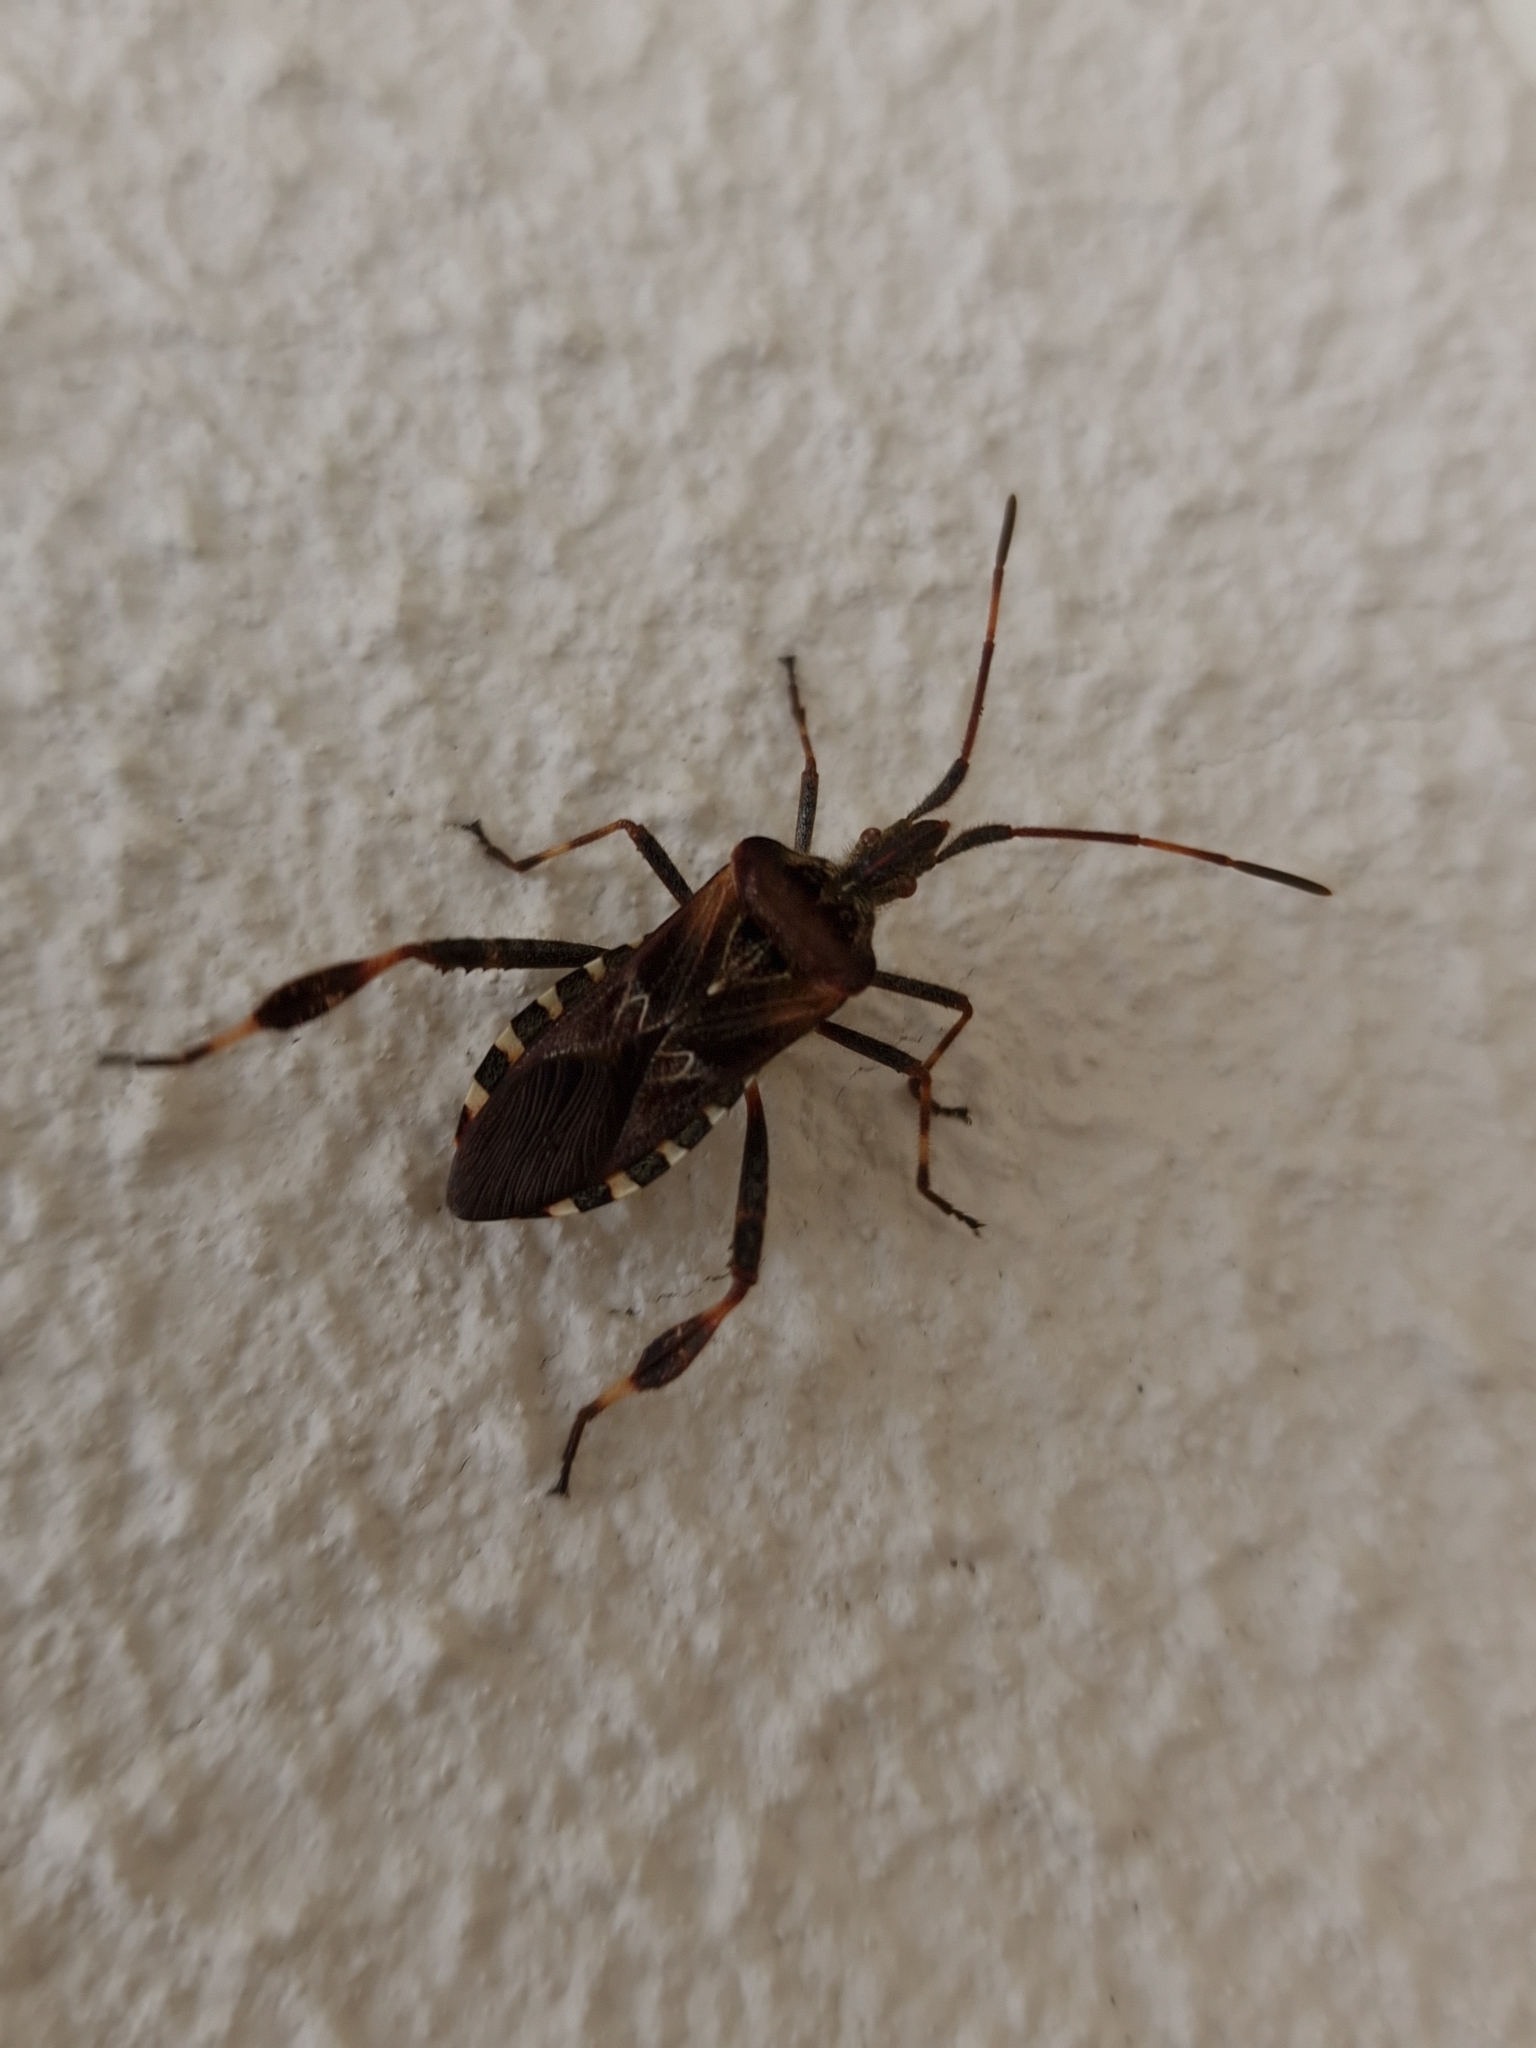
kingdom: Animalia
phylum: Arthropoda
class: Insecta
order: Hemiptera
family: Coreidae
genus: Leptoglossus
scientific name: Leptoglossus occidentalis
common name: Western conifer-seed bug
